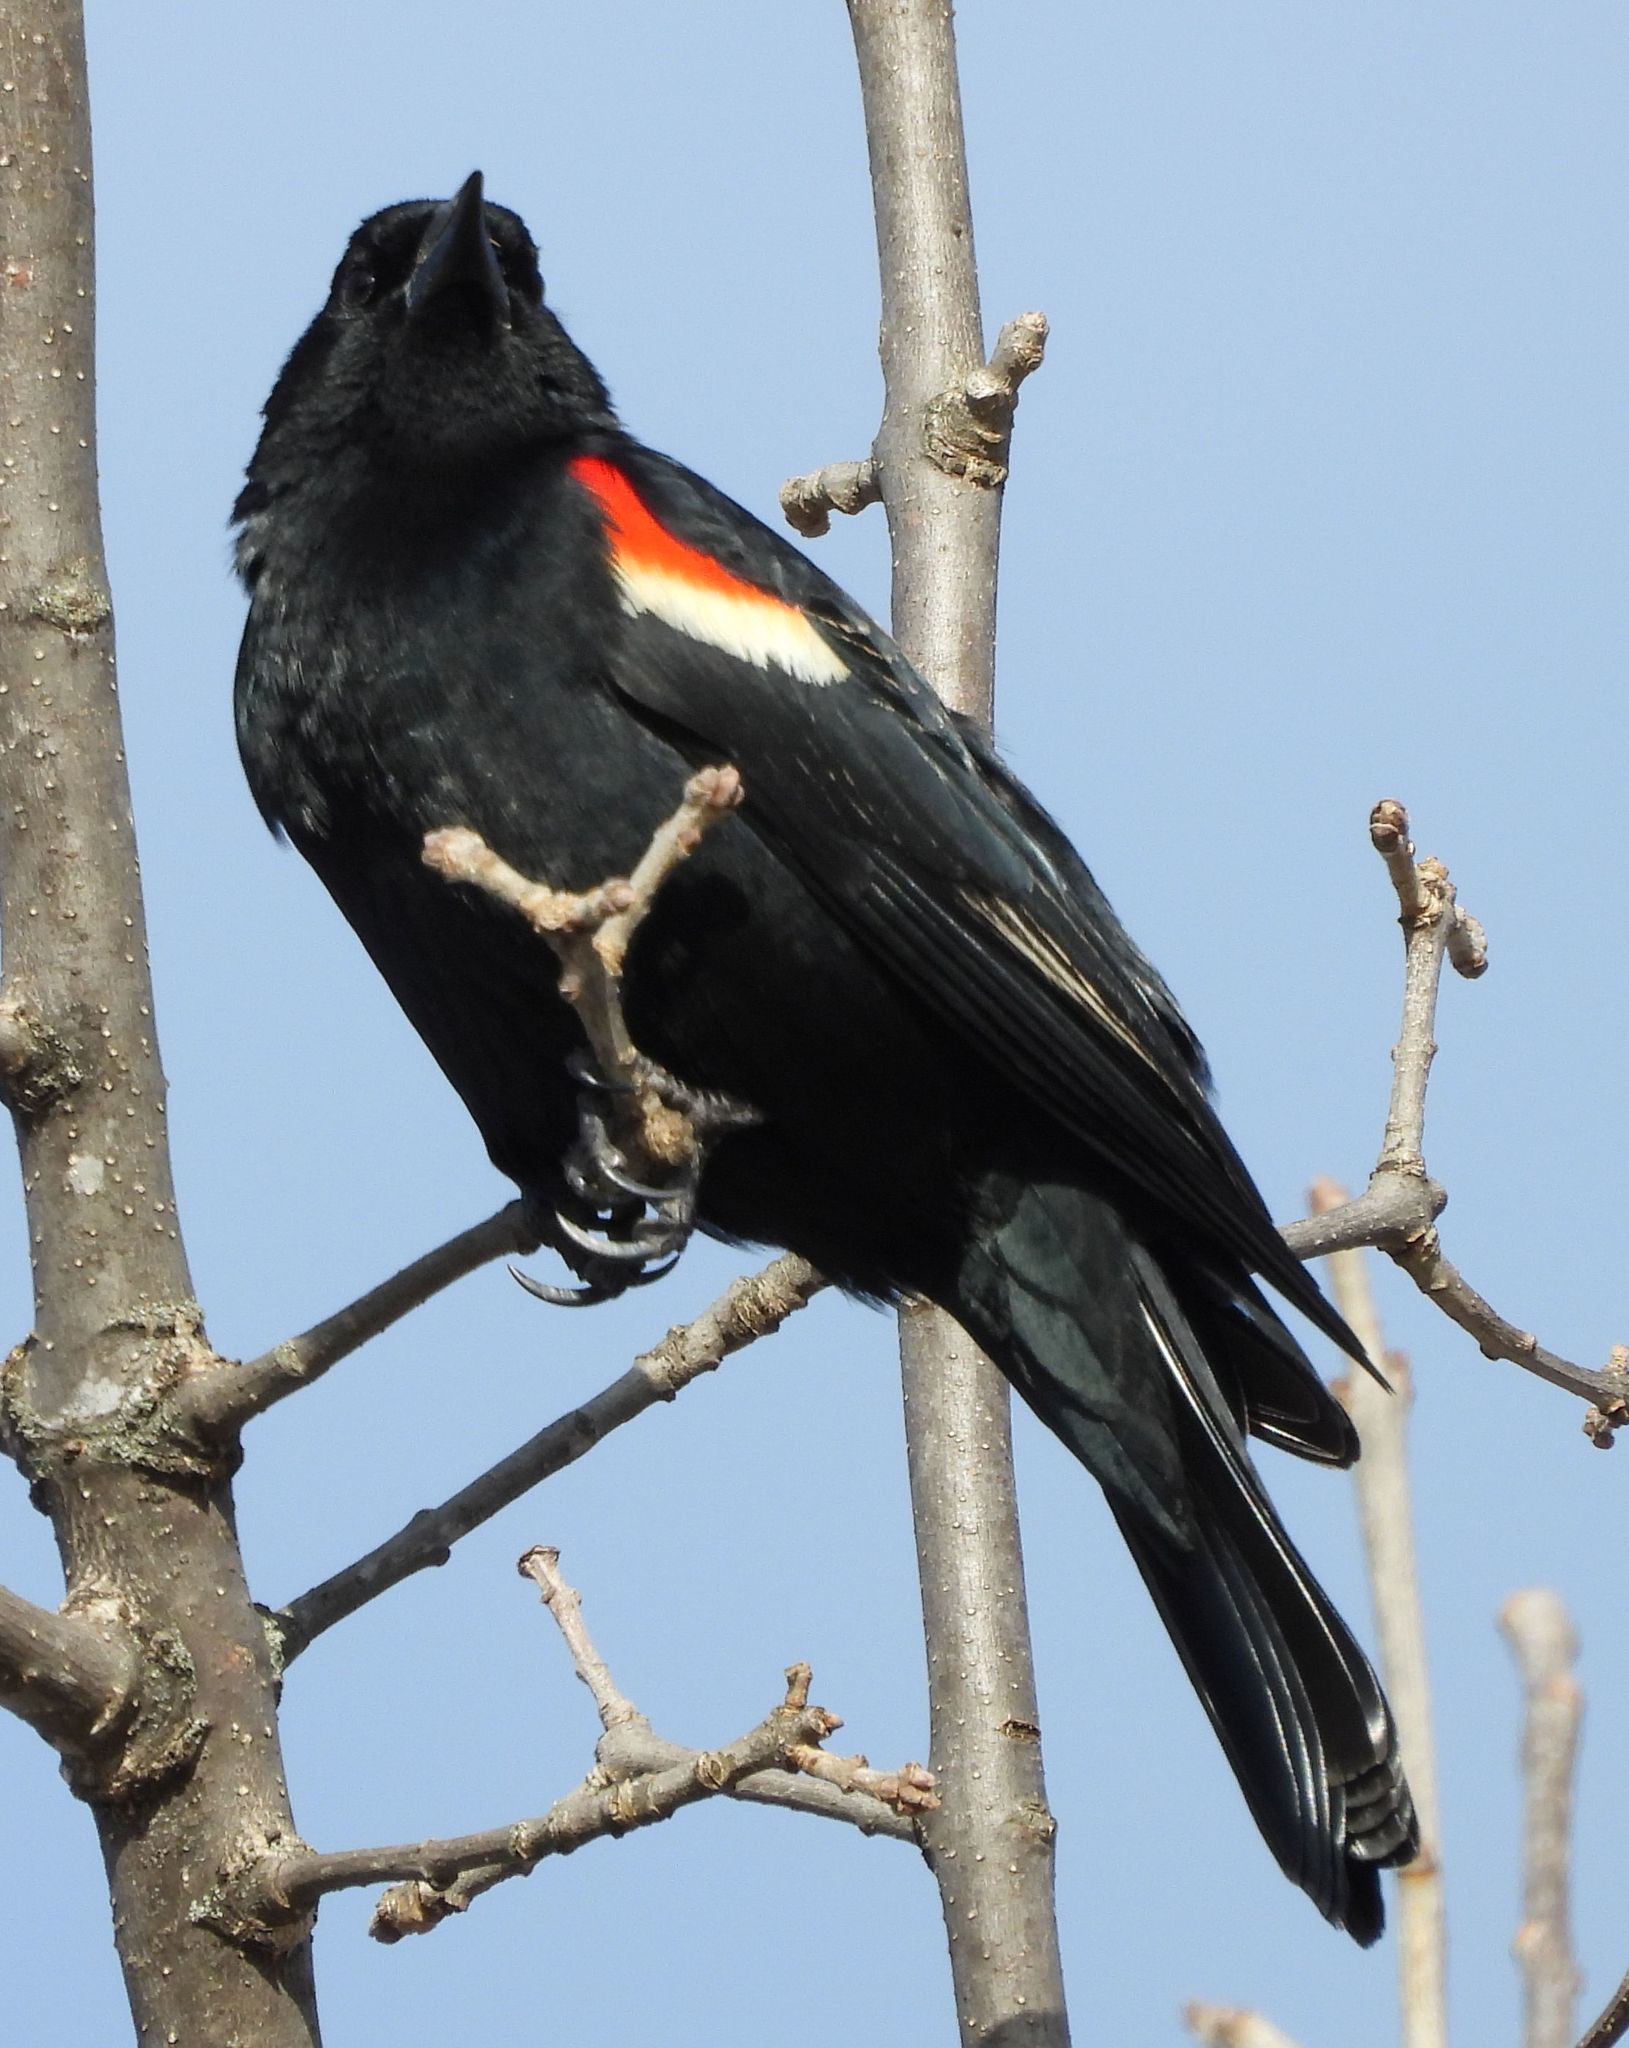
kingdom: Animalia
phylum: Chordata
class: Aves
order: Passeriformes
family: Icteridae
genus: Agelaius
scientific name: Agelaius phoeniceus
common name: Red-winged blackbird
